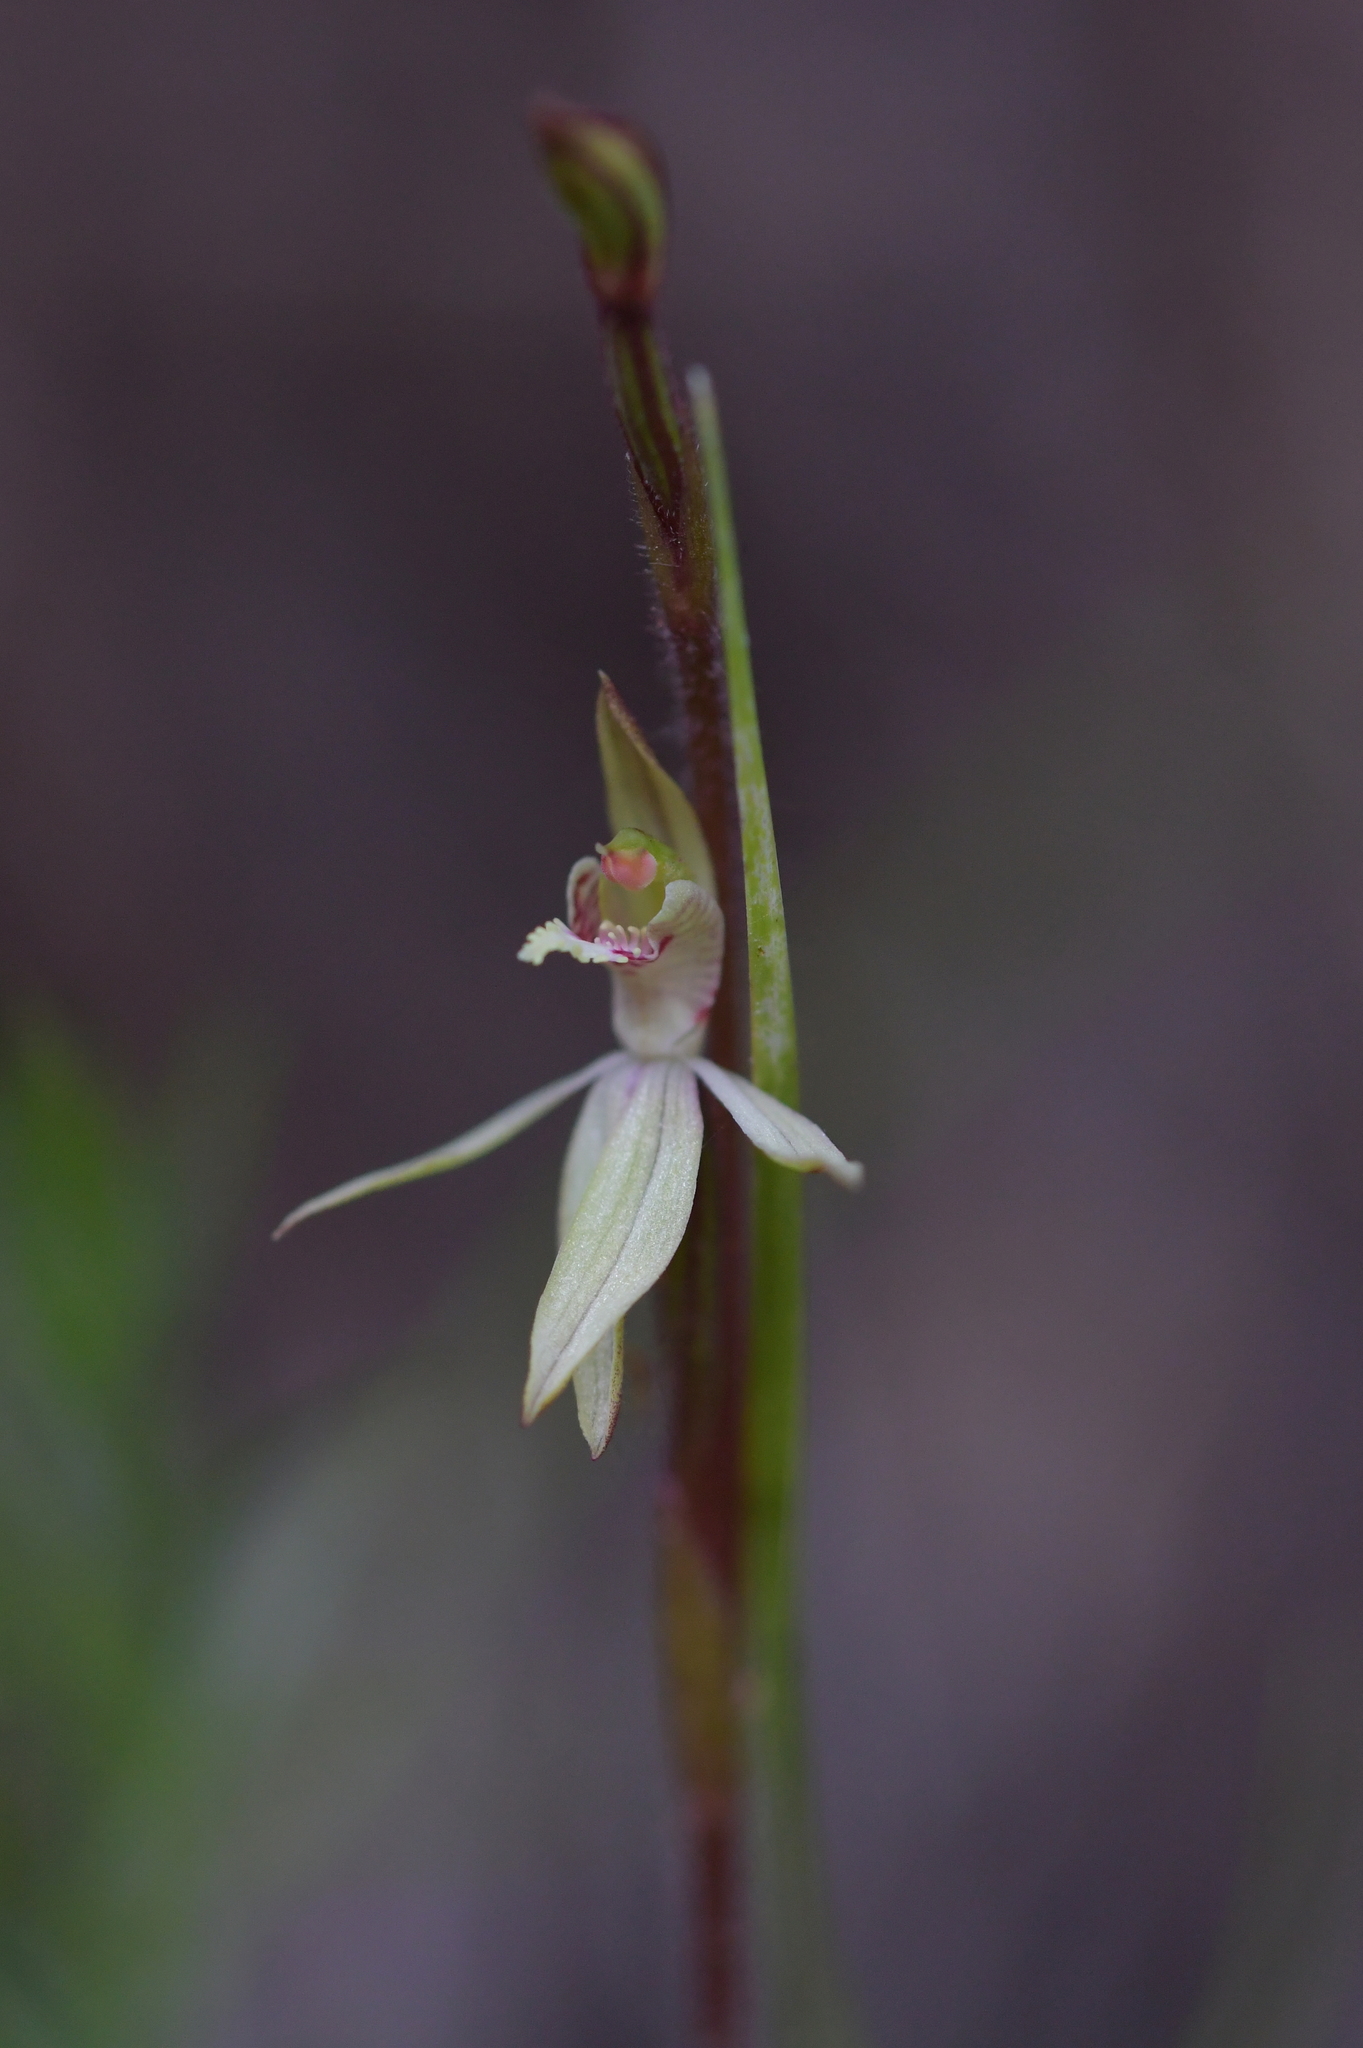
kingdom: Plantae
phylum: Tracheophyta
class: Liliopsida
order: Asparagales
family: Orchidaceae
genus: Caladenia
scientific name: Caladenia chlorostyla
